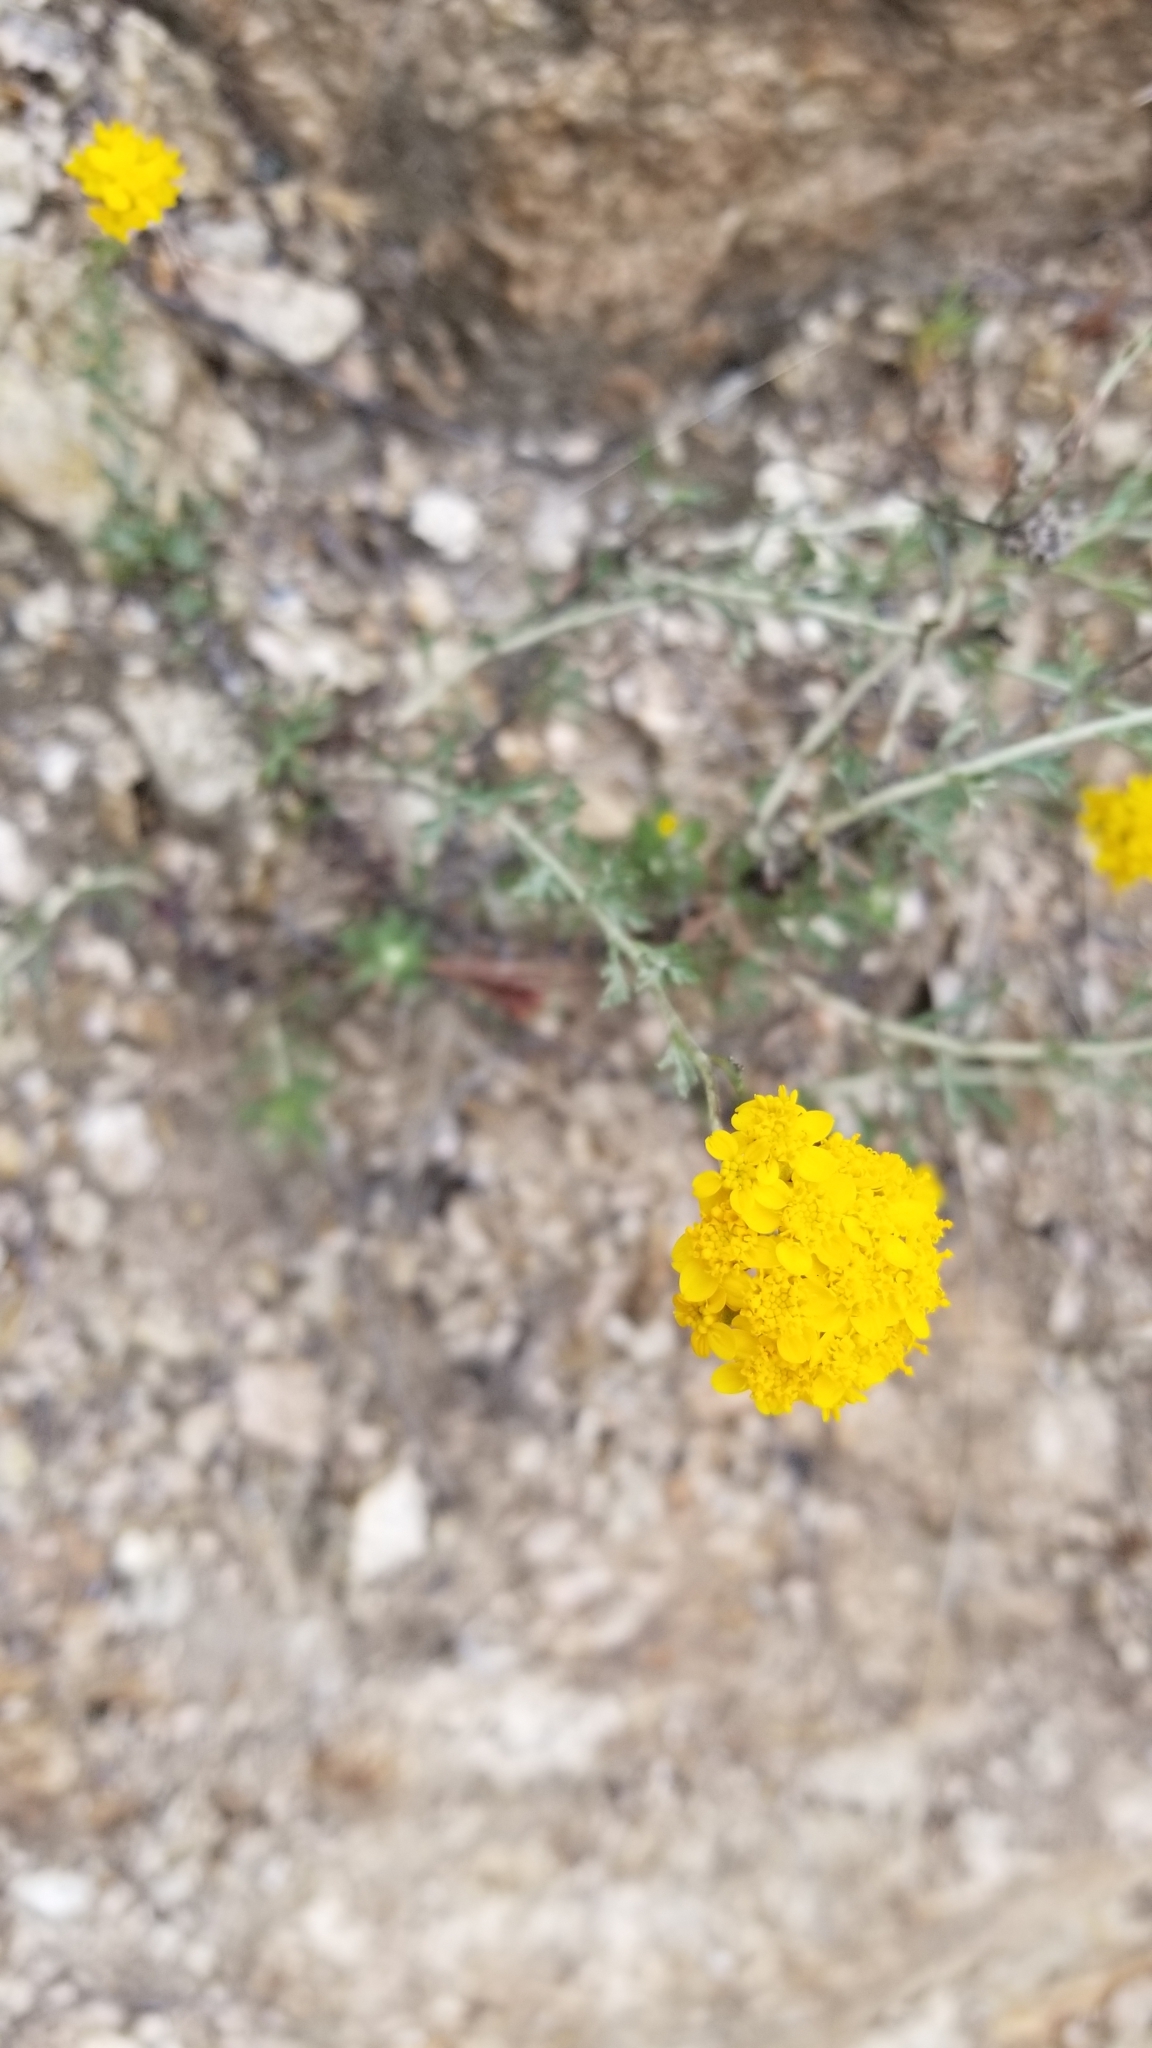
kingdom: Plantae
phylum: Tracheophyta
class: Magnoliopsida
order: Asterales
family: Asteraceae
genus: Eriophyllum
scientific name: Eriophyllum confertiflorum
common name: Golden-yarrow
